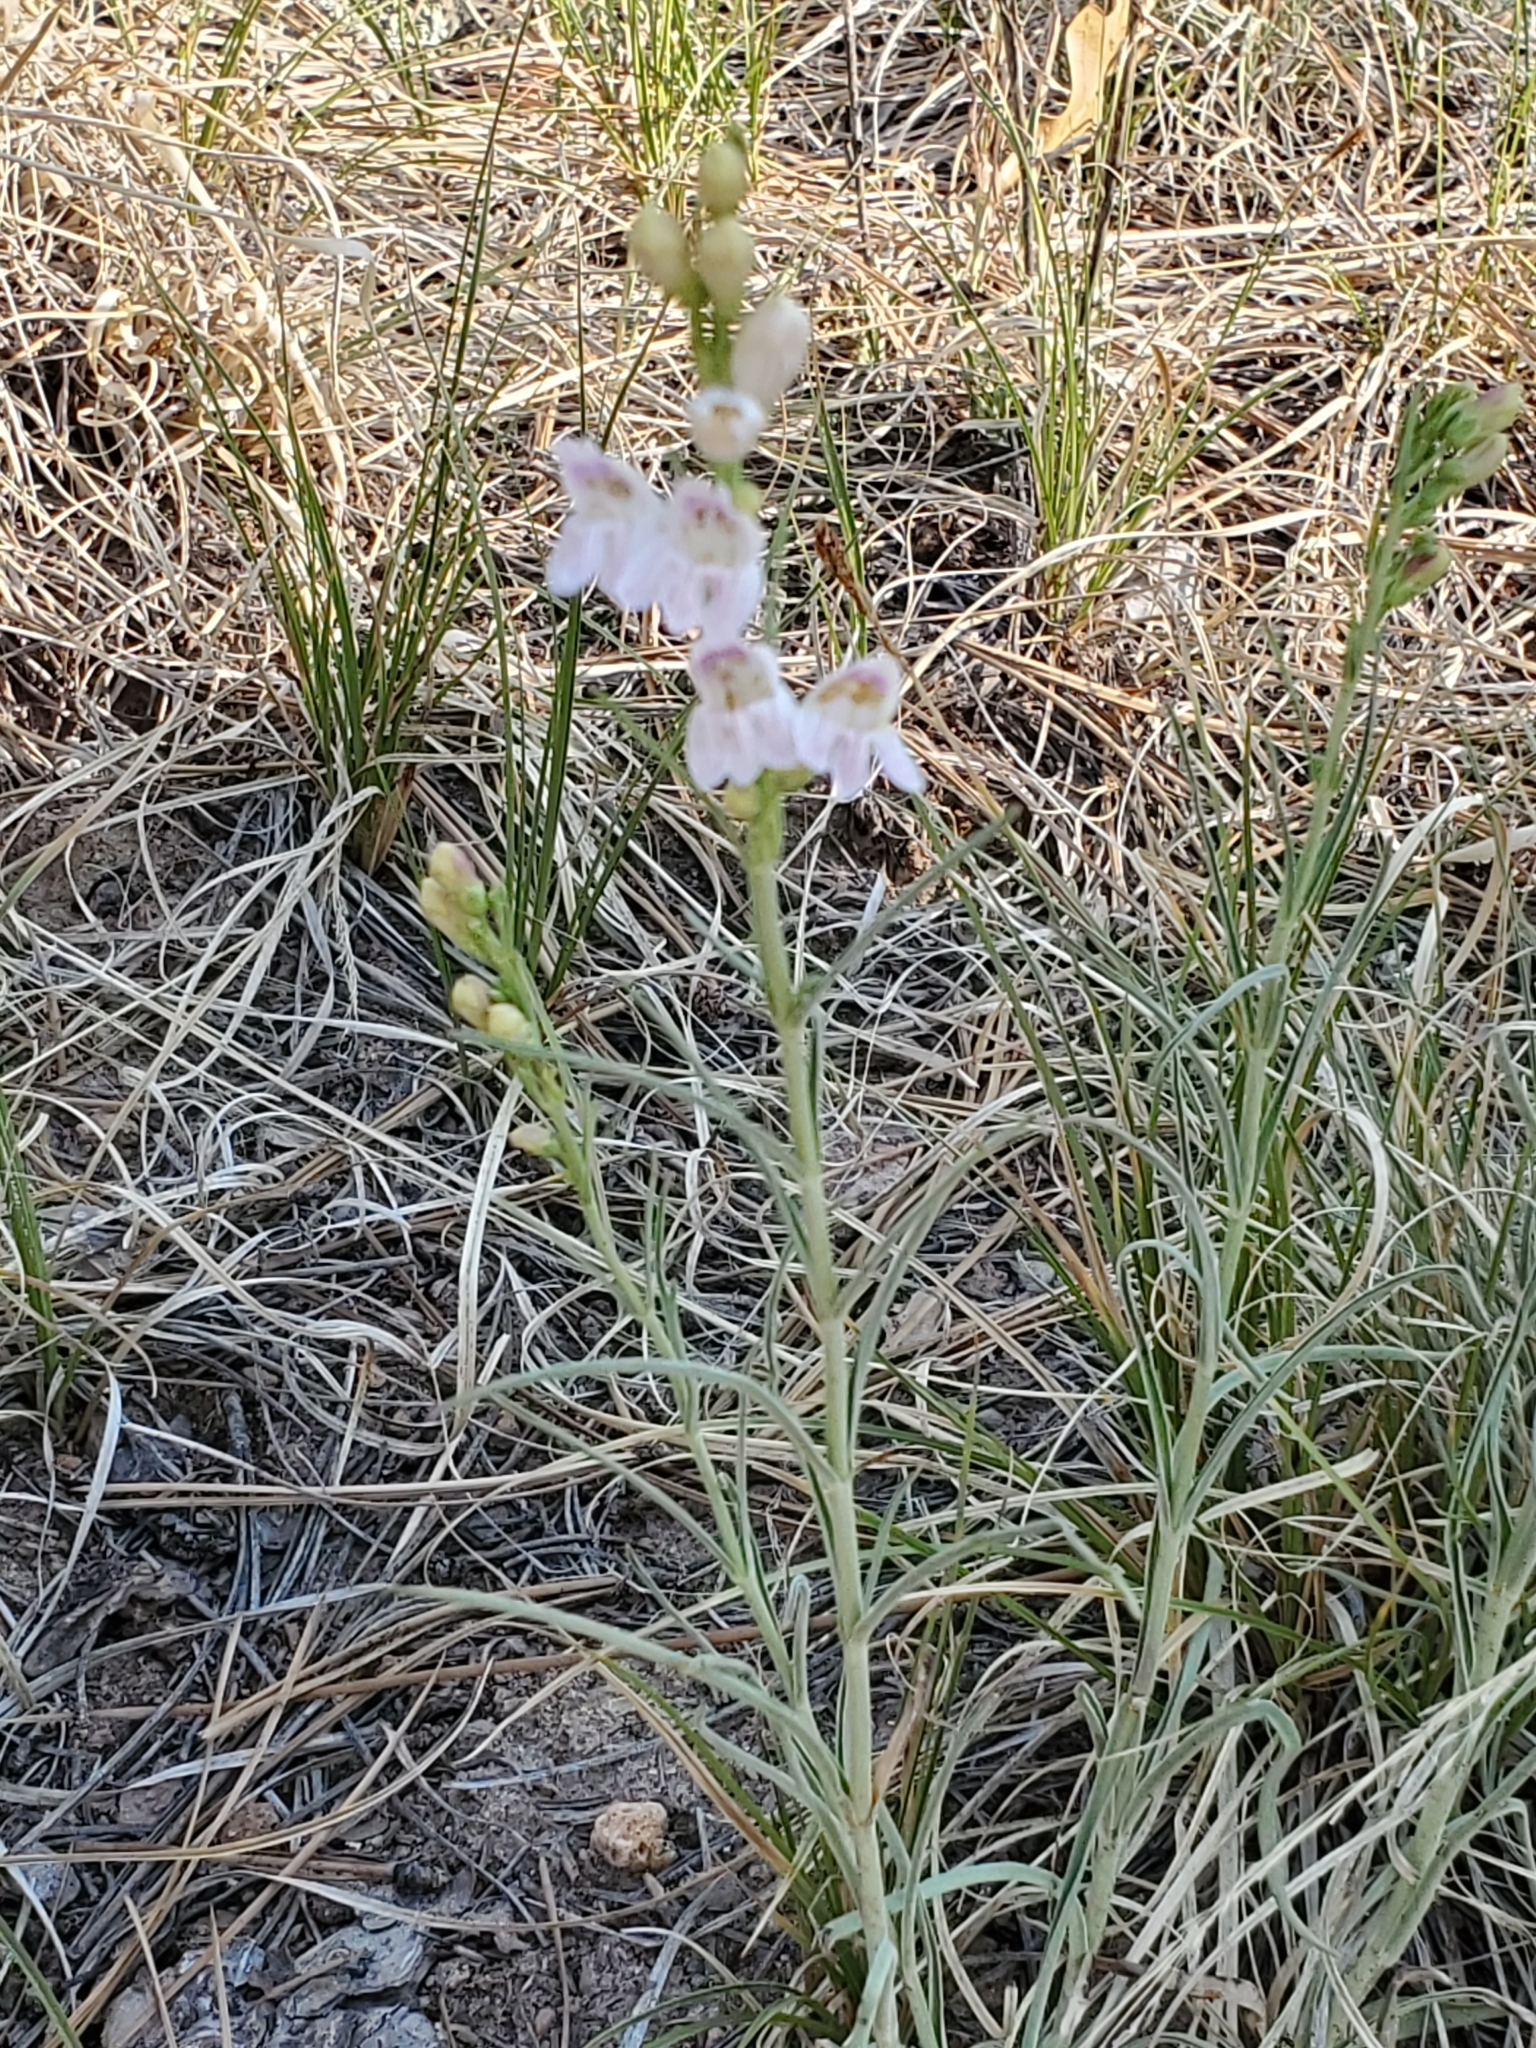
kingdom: Plantae
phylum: Tracheophyta
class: Magnoliopsida
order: Lamiales
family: Plantaginaceae
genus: Penstemon
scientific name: Penstemon virgatus
